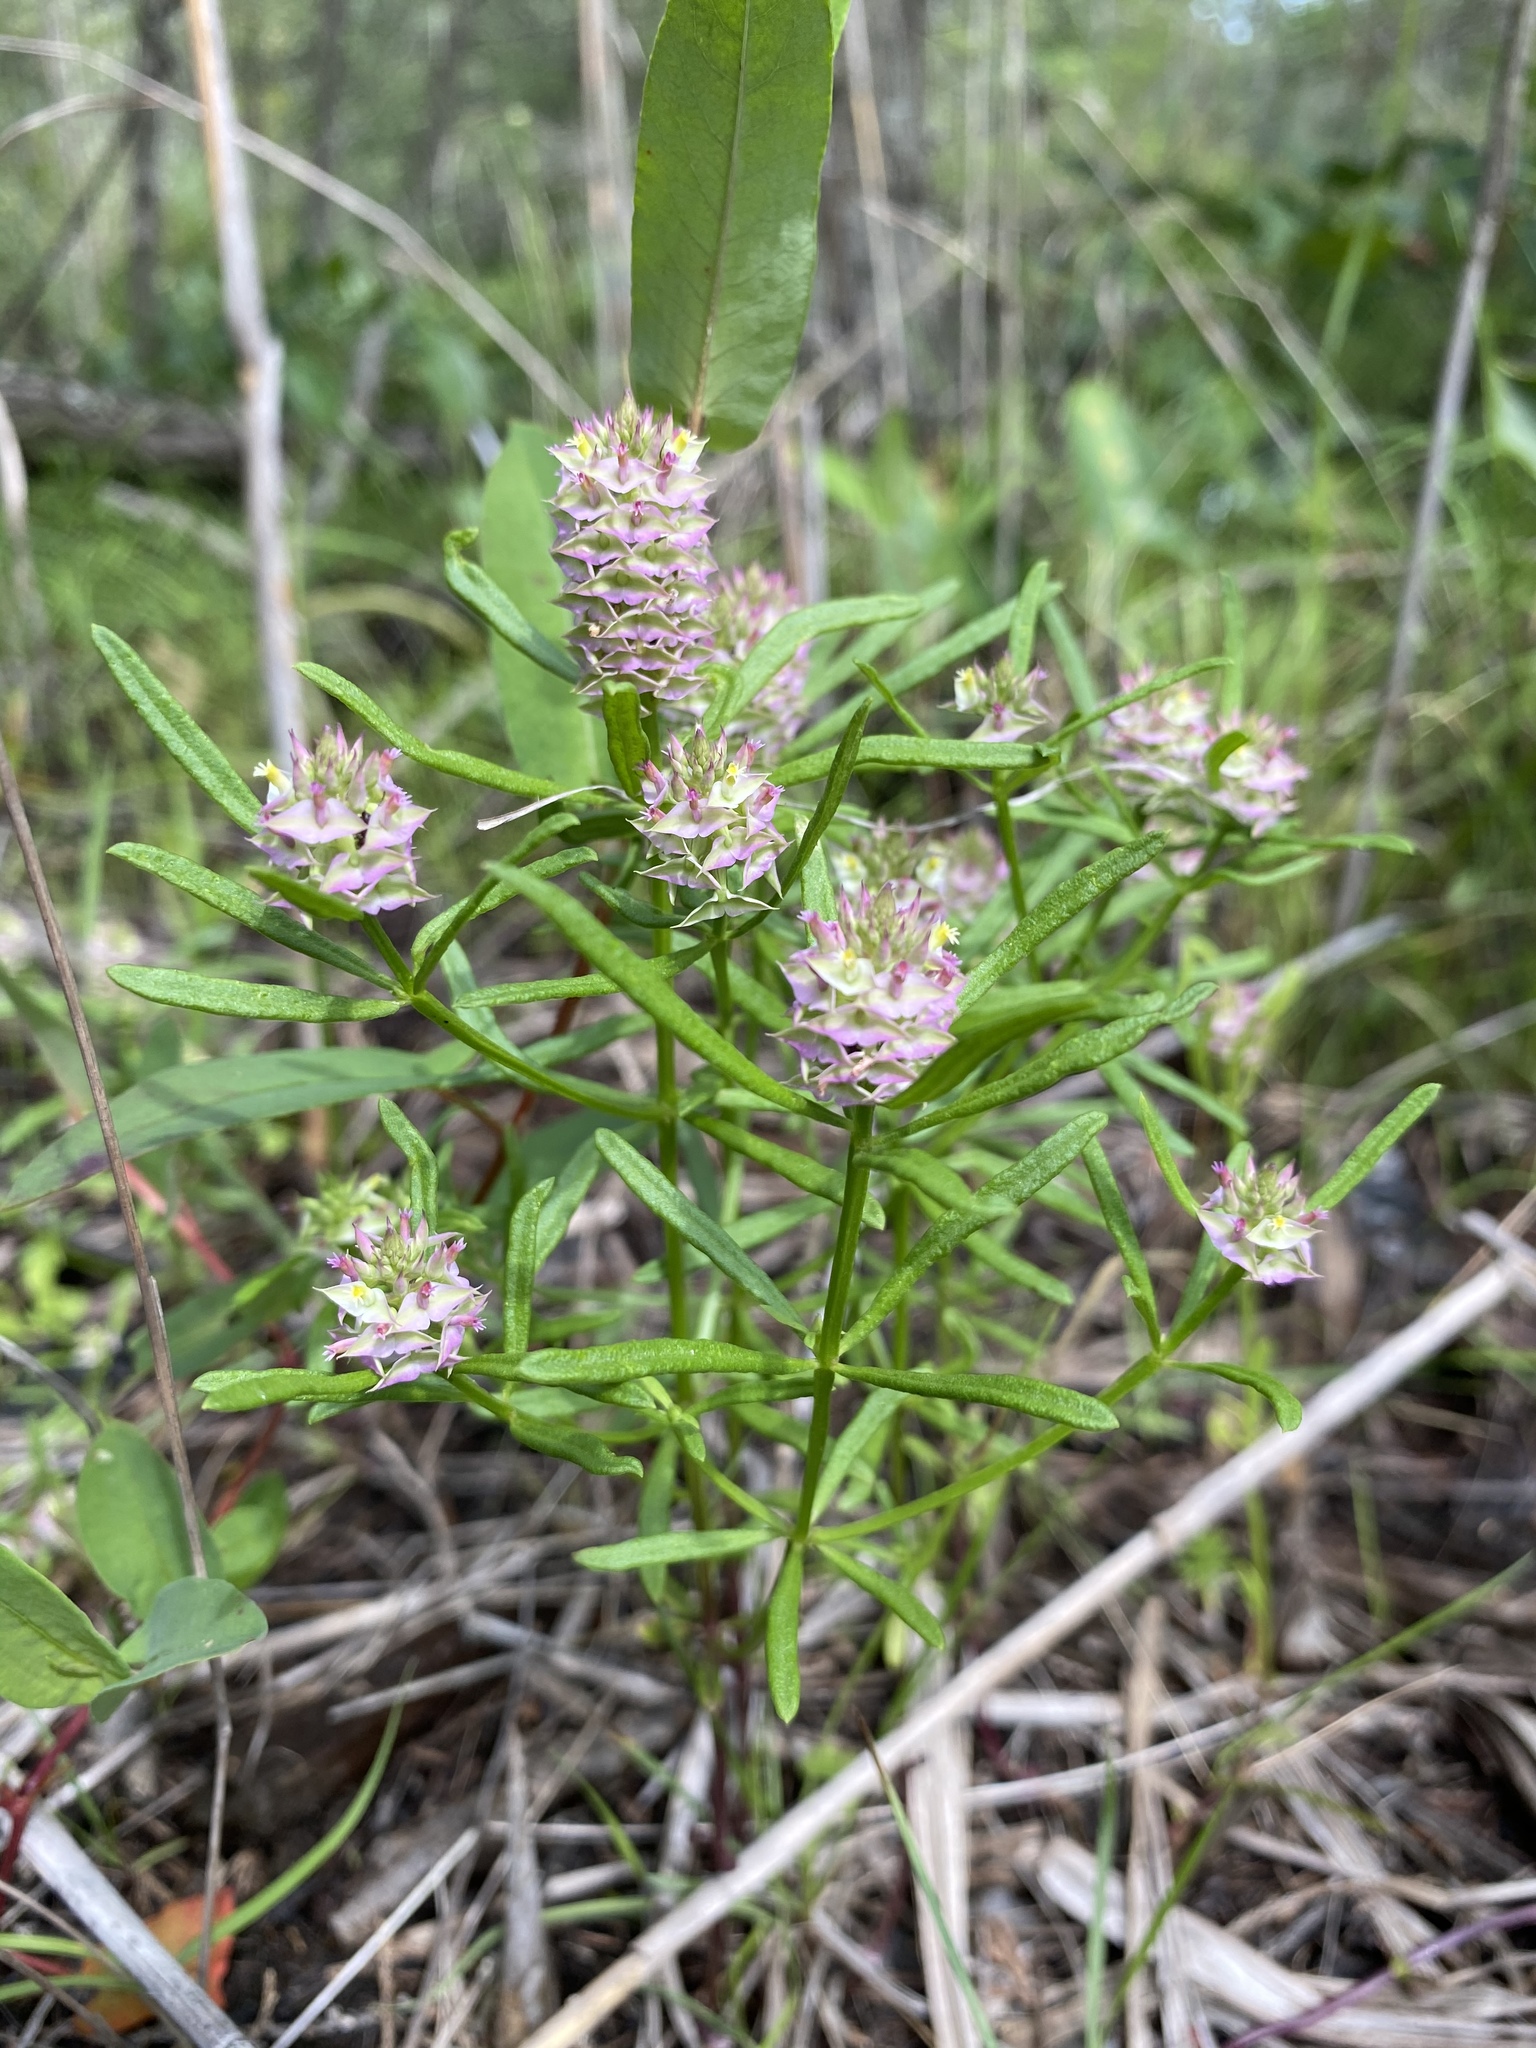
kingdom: Plantae
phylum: Tracheophyta
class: Magnoliopsida
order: Fabales
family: Polygalaceae
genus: Polygala
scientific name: Polygala cruciata
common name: Drumheads
